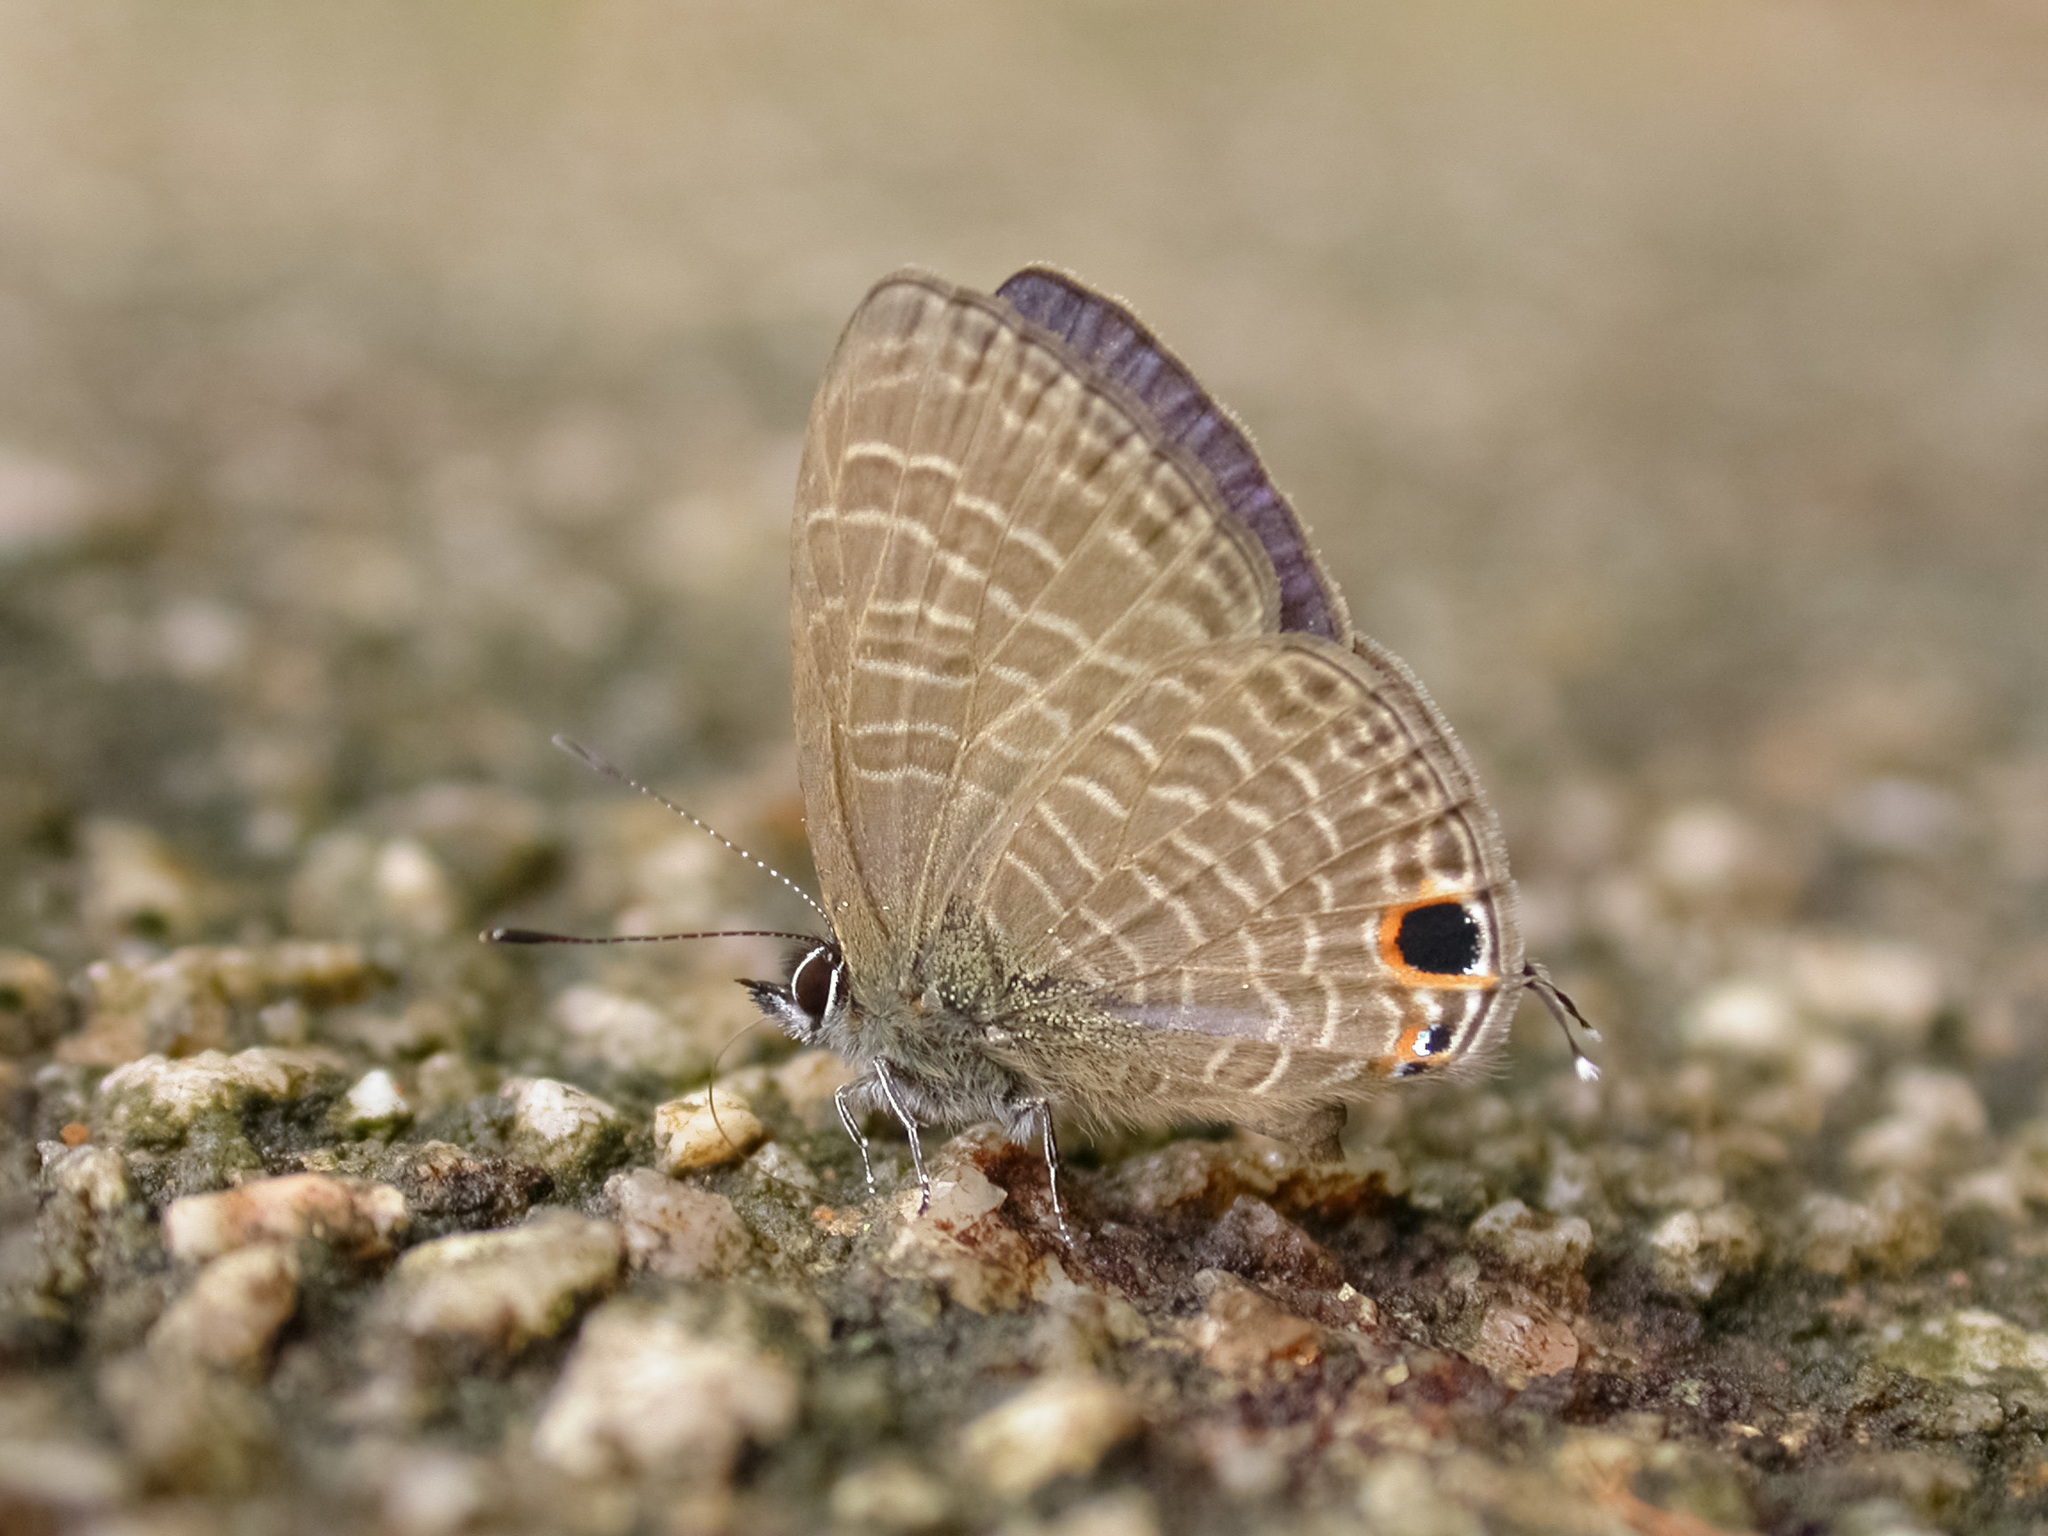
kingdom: Animalia
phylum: Arthropoda
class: Insecta
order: Lepidoptera
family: Lycaenidae
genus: Nacaduba
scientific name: Nacaduba beroe
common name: Opaque sixline blue
